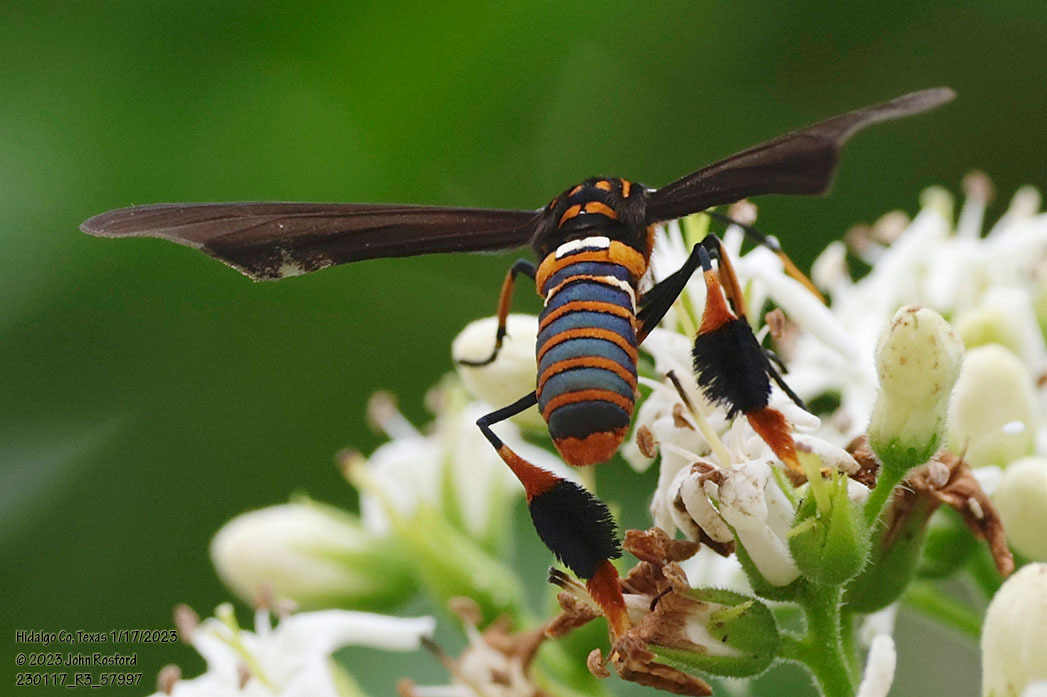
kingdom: Animalia
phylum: Arthropoda
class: Insecta
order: Lepidoptera
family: Erebidae
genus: Horama
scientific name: Horama panthalon
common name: Texas wasp moth
